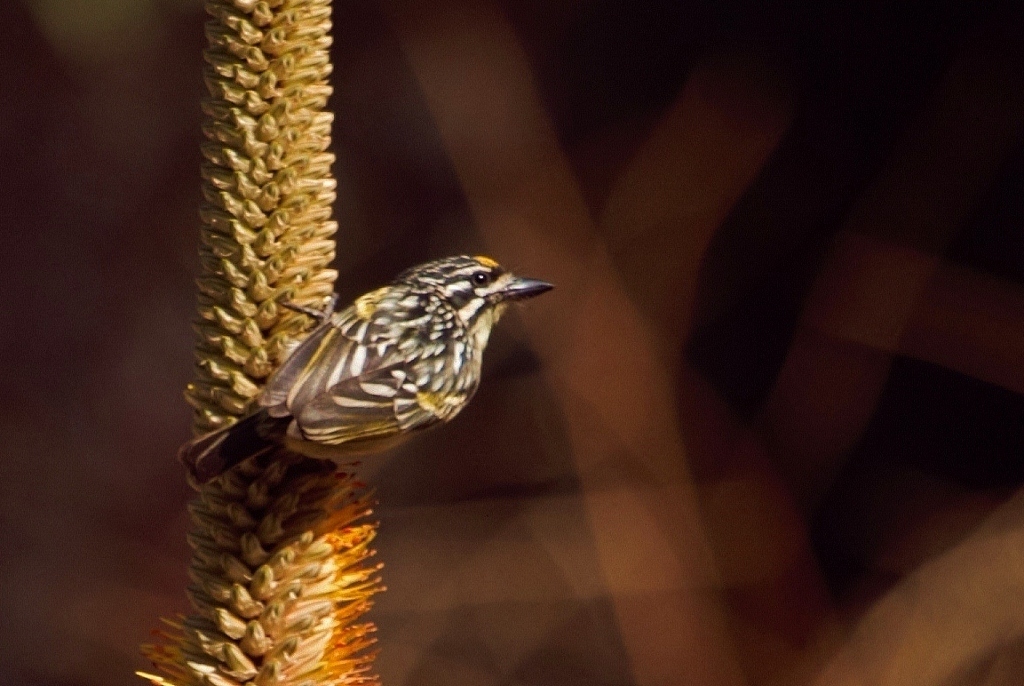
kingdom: Animalia
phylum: Chordata
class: Aves
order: Piciformes
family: Lybiidae
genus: Pogoniulus
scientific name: Pogoniulus chrysoconus
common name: Yellow-fronted tinkerbird
